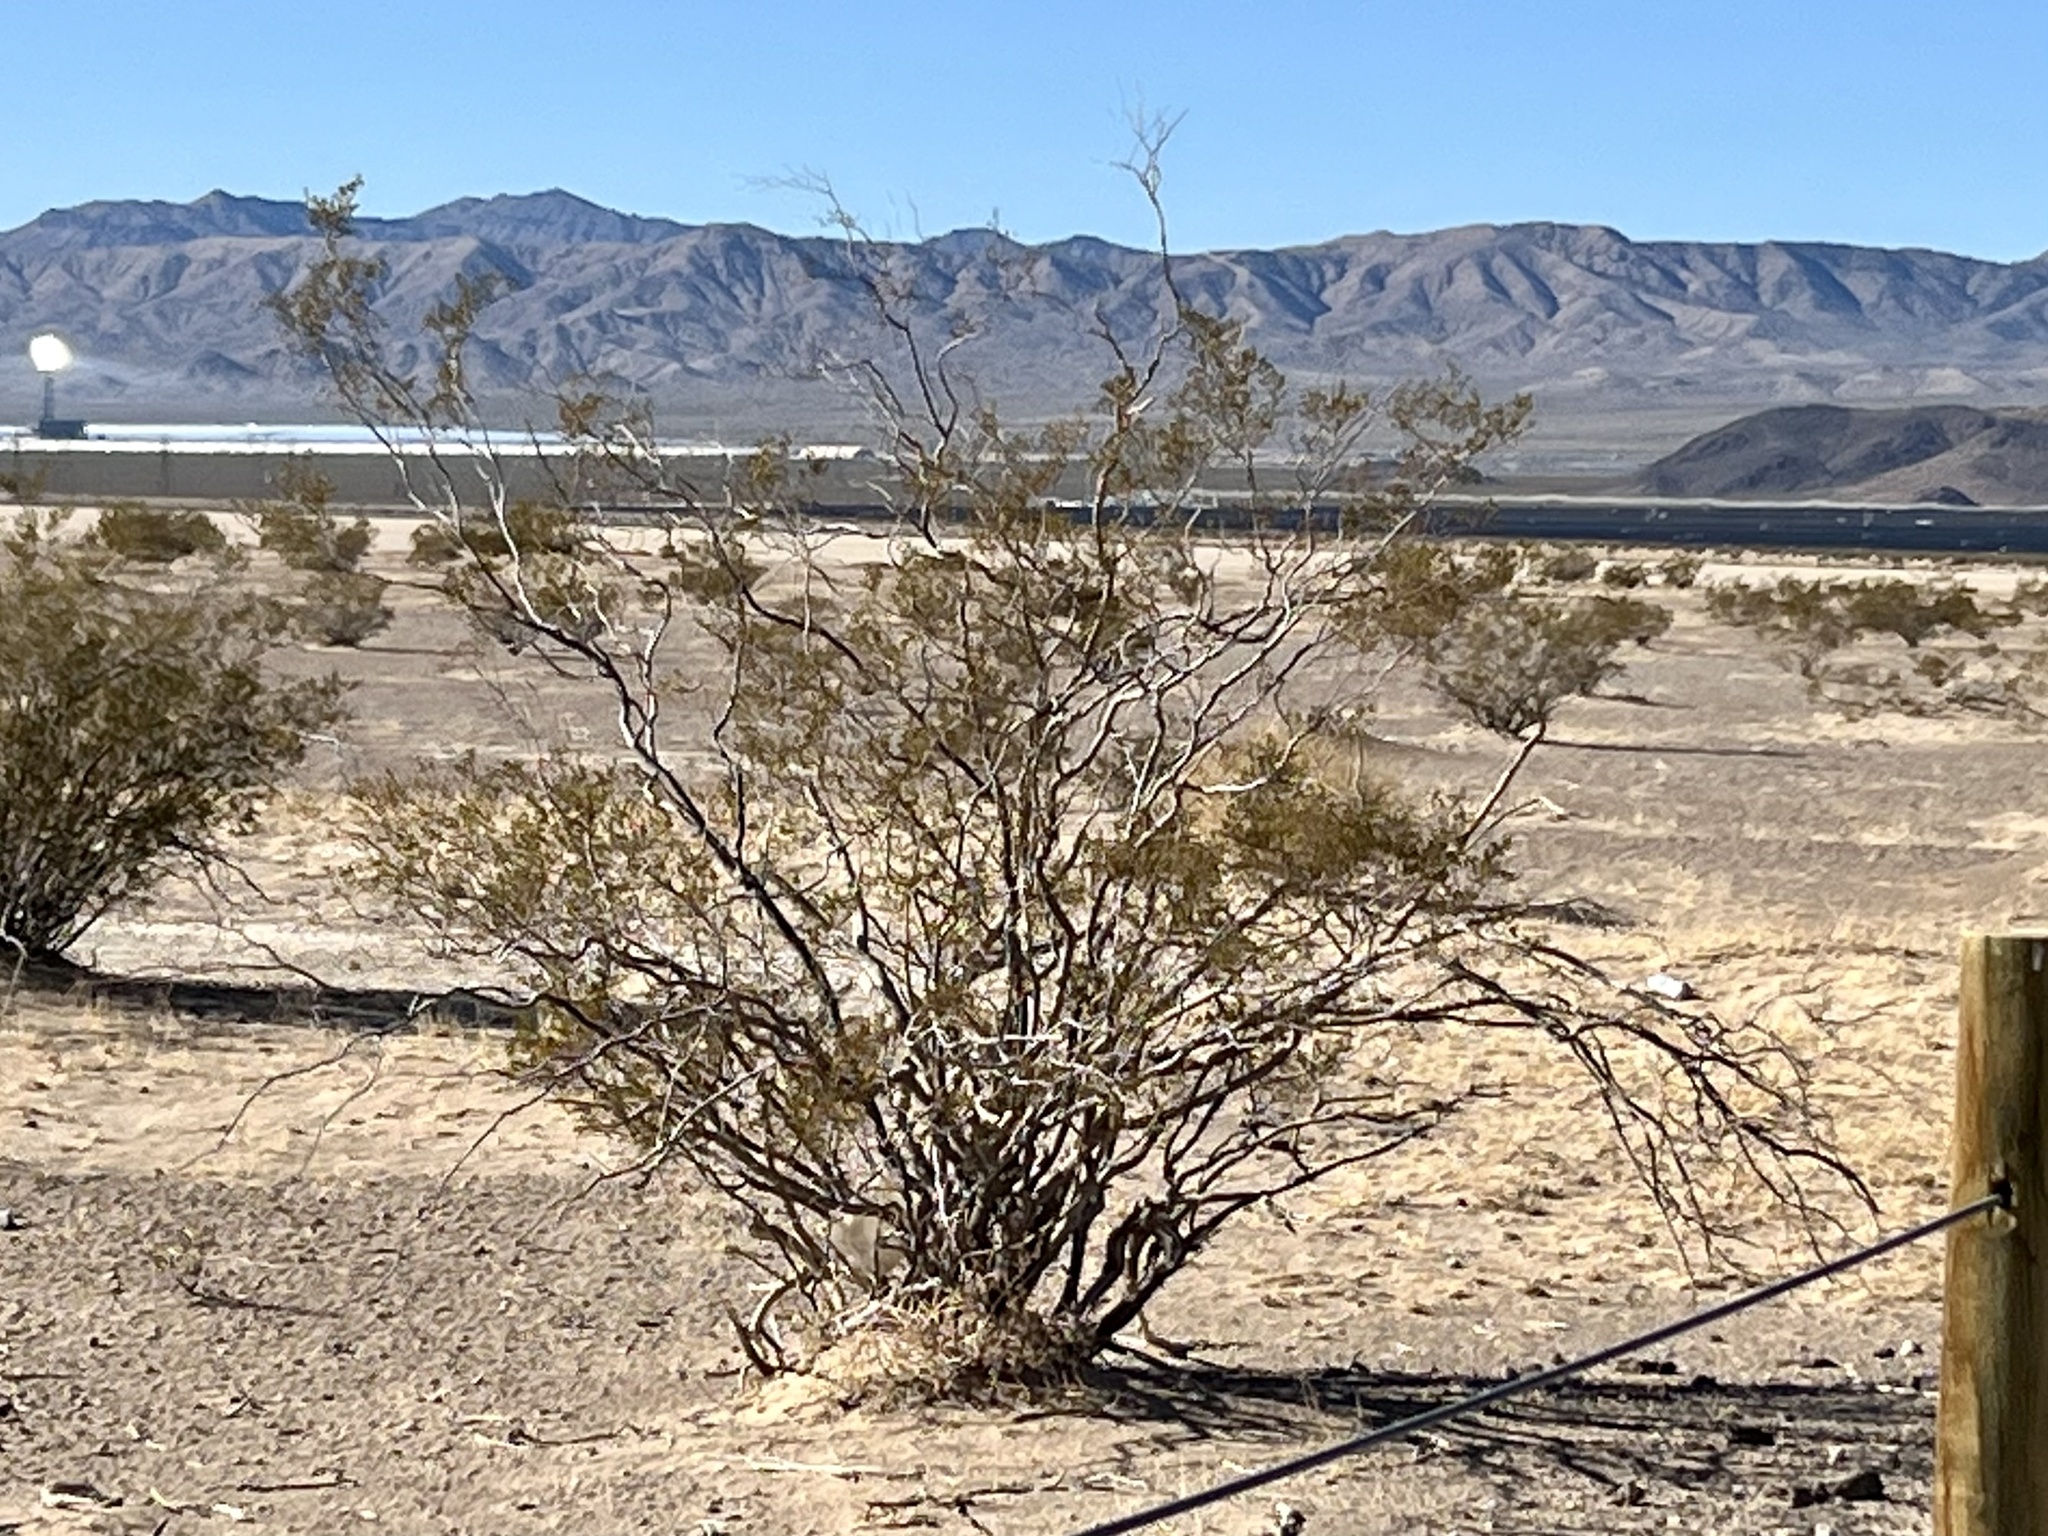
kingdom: Plantae
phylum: Tracheophyta
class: Magnoliopsida
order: Zygophyllales
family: Zygophyllaceae
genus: Larrea
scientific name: Larrea tridentata
